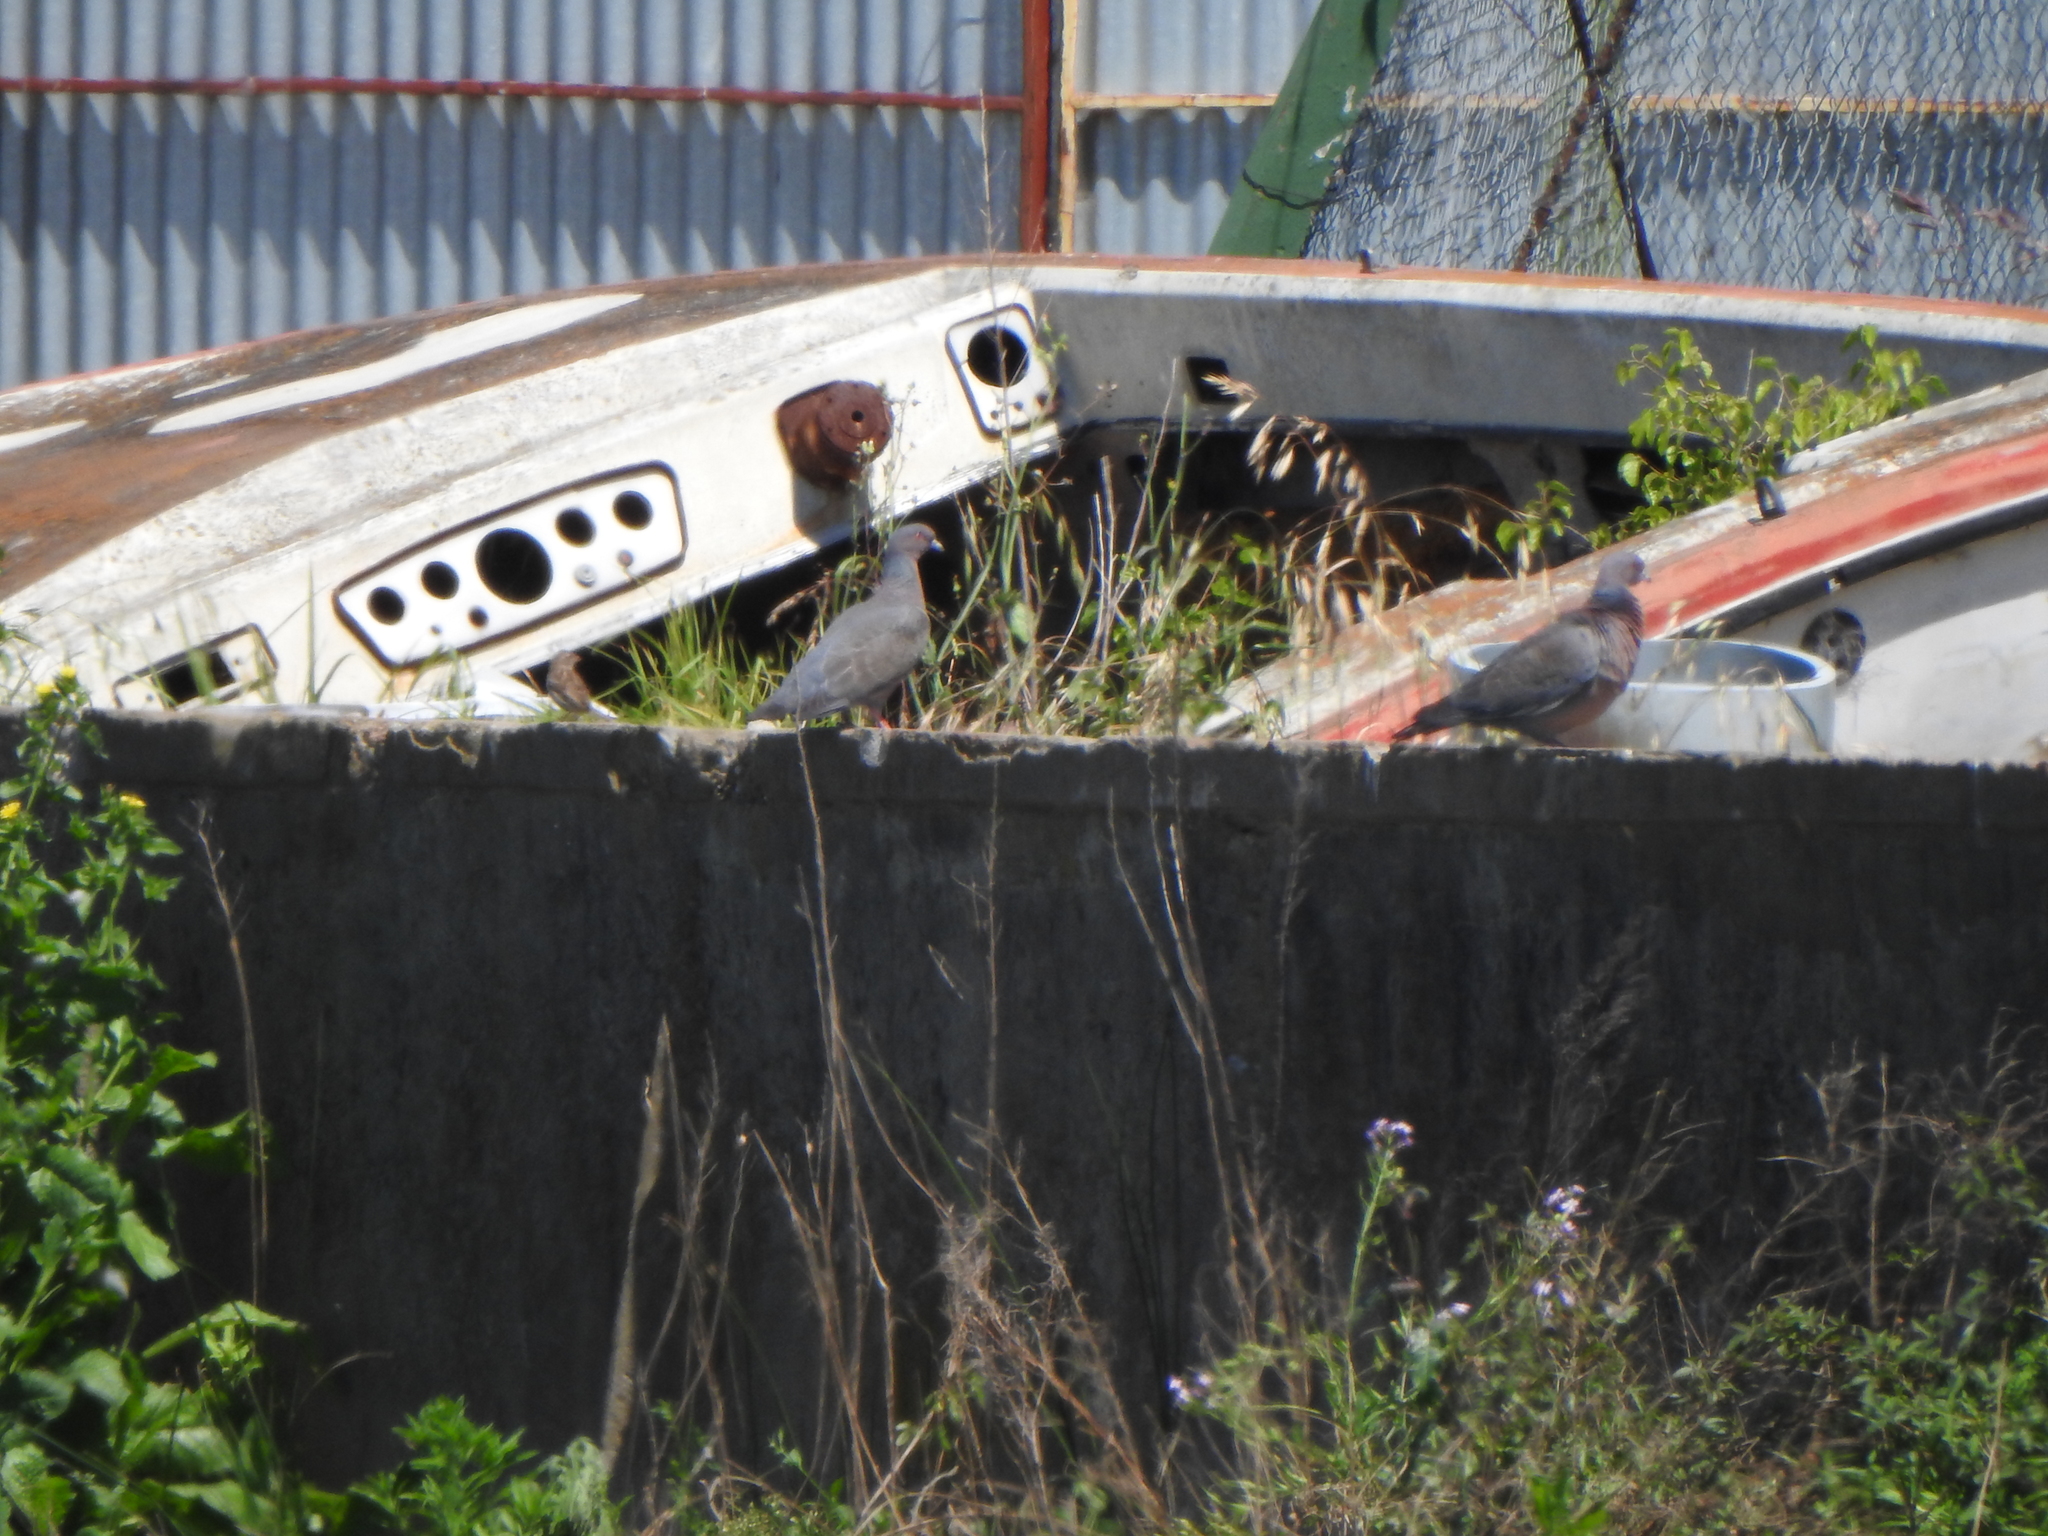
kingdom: Animalia
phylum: Chordata
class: Aves
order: Columbiformes
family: Columbidae
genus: Patagioenas
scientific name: Patagioenas picazuro
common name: Picazuro pigeon
